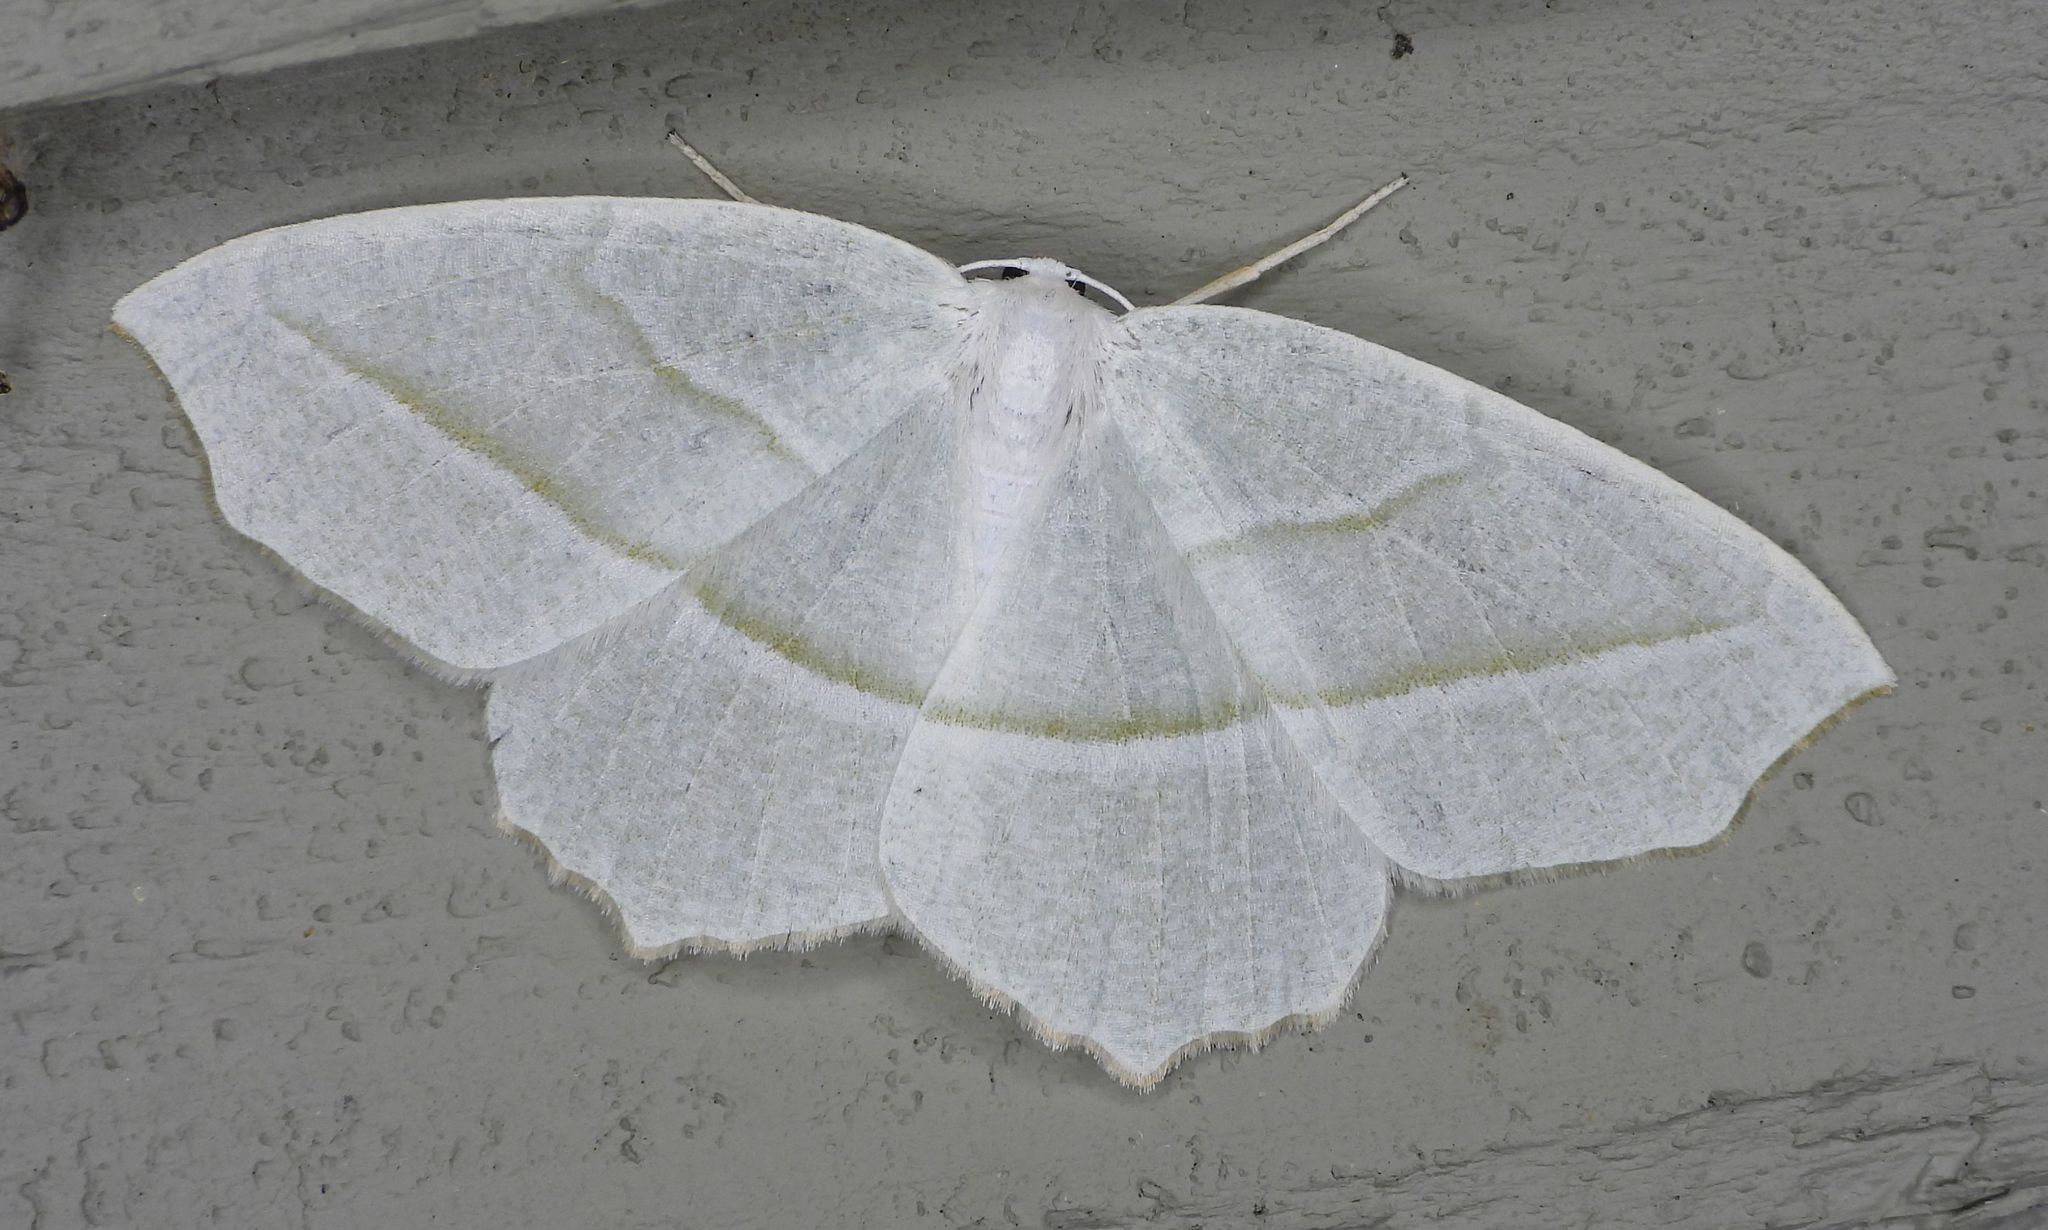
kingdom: Animalia
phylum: Arthropoda
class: Insecta
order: Lepidoptera
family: Geometridae
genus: Campaea
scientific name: Campaea perlata
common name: Fringed looper
